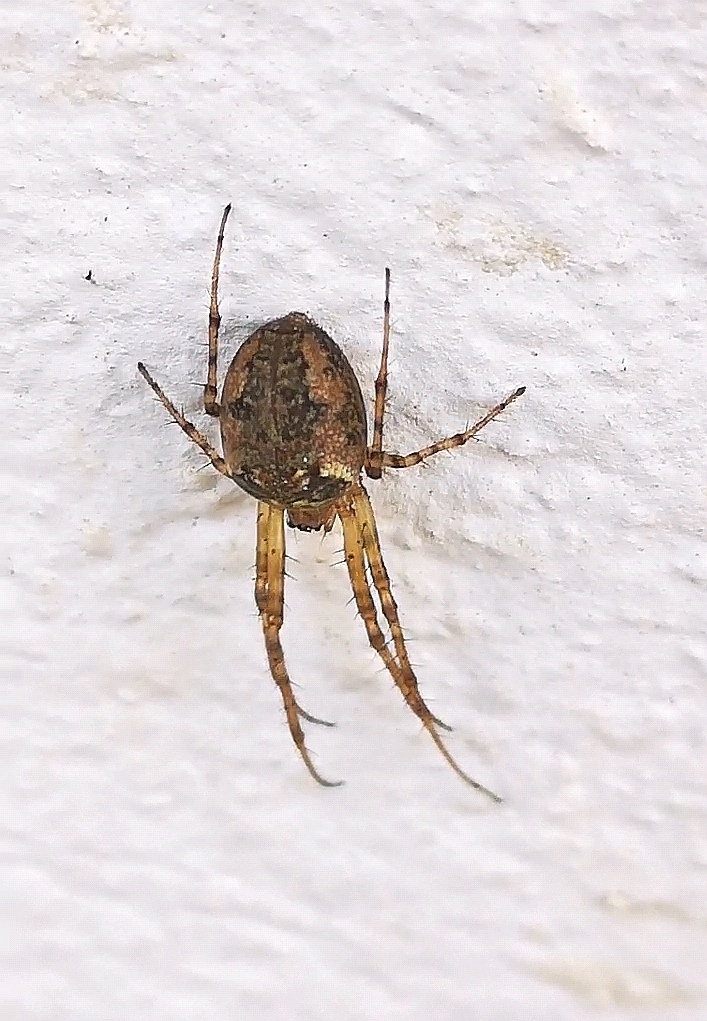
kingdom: Animalia
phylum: Arthropoda
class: Arachnida
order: Araneae
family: Tetragnathidae
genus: Metellina
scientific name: Metellina
